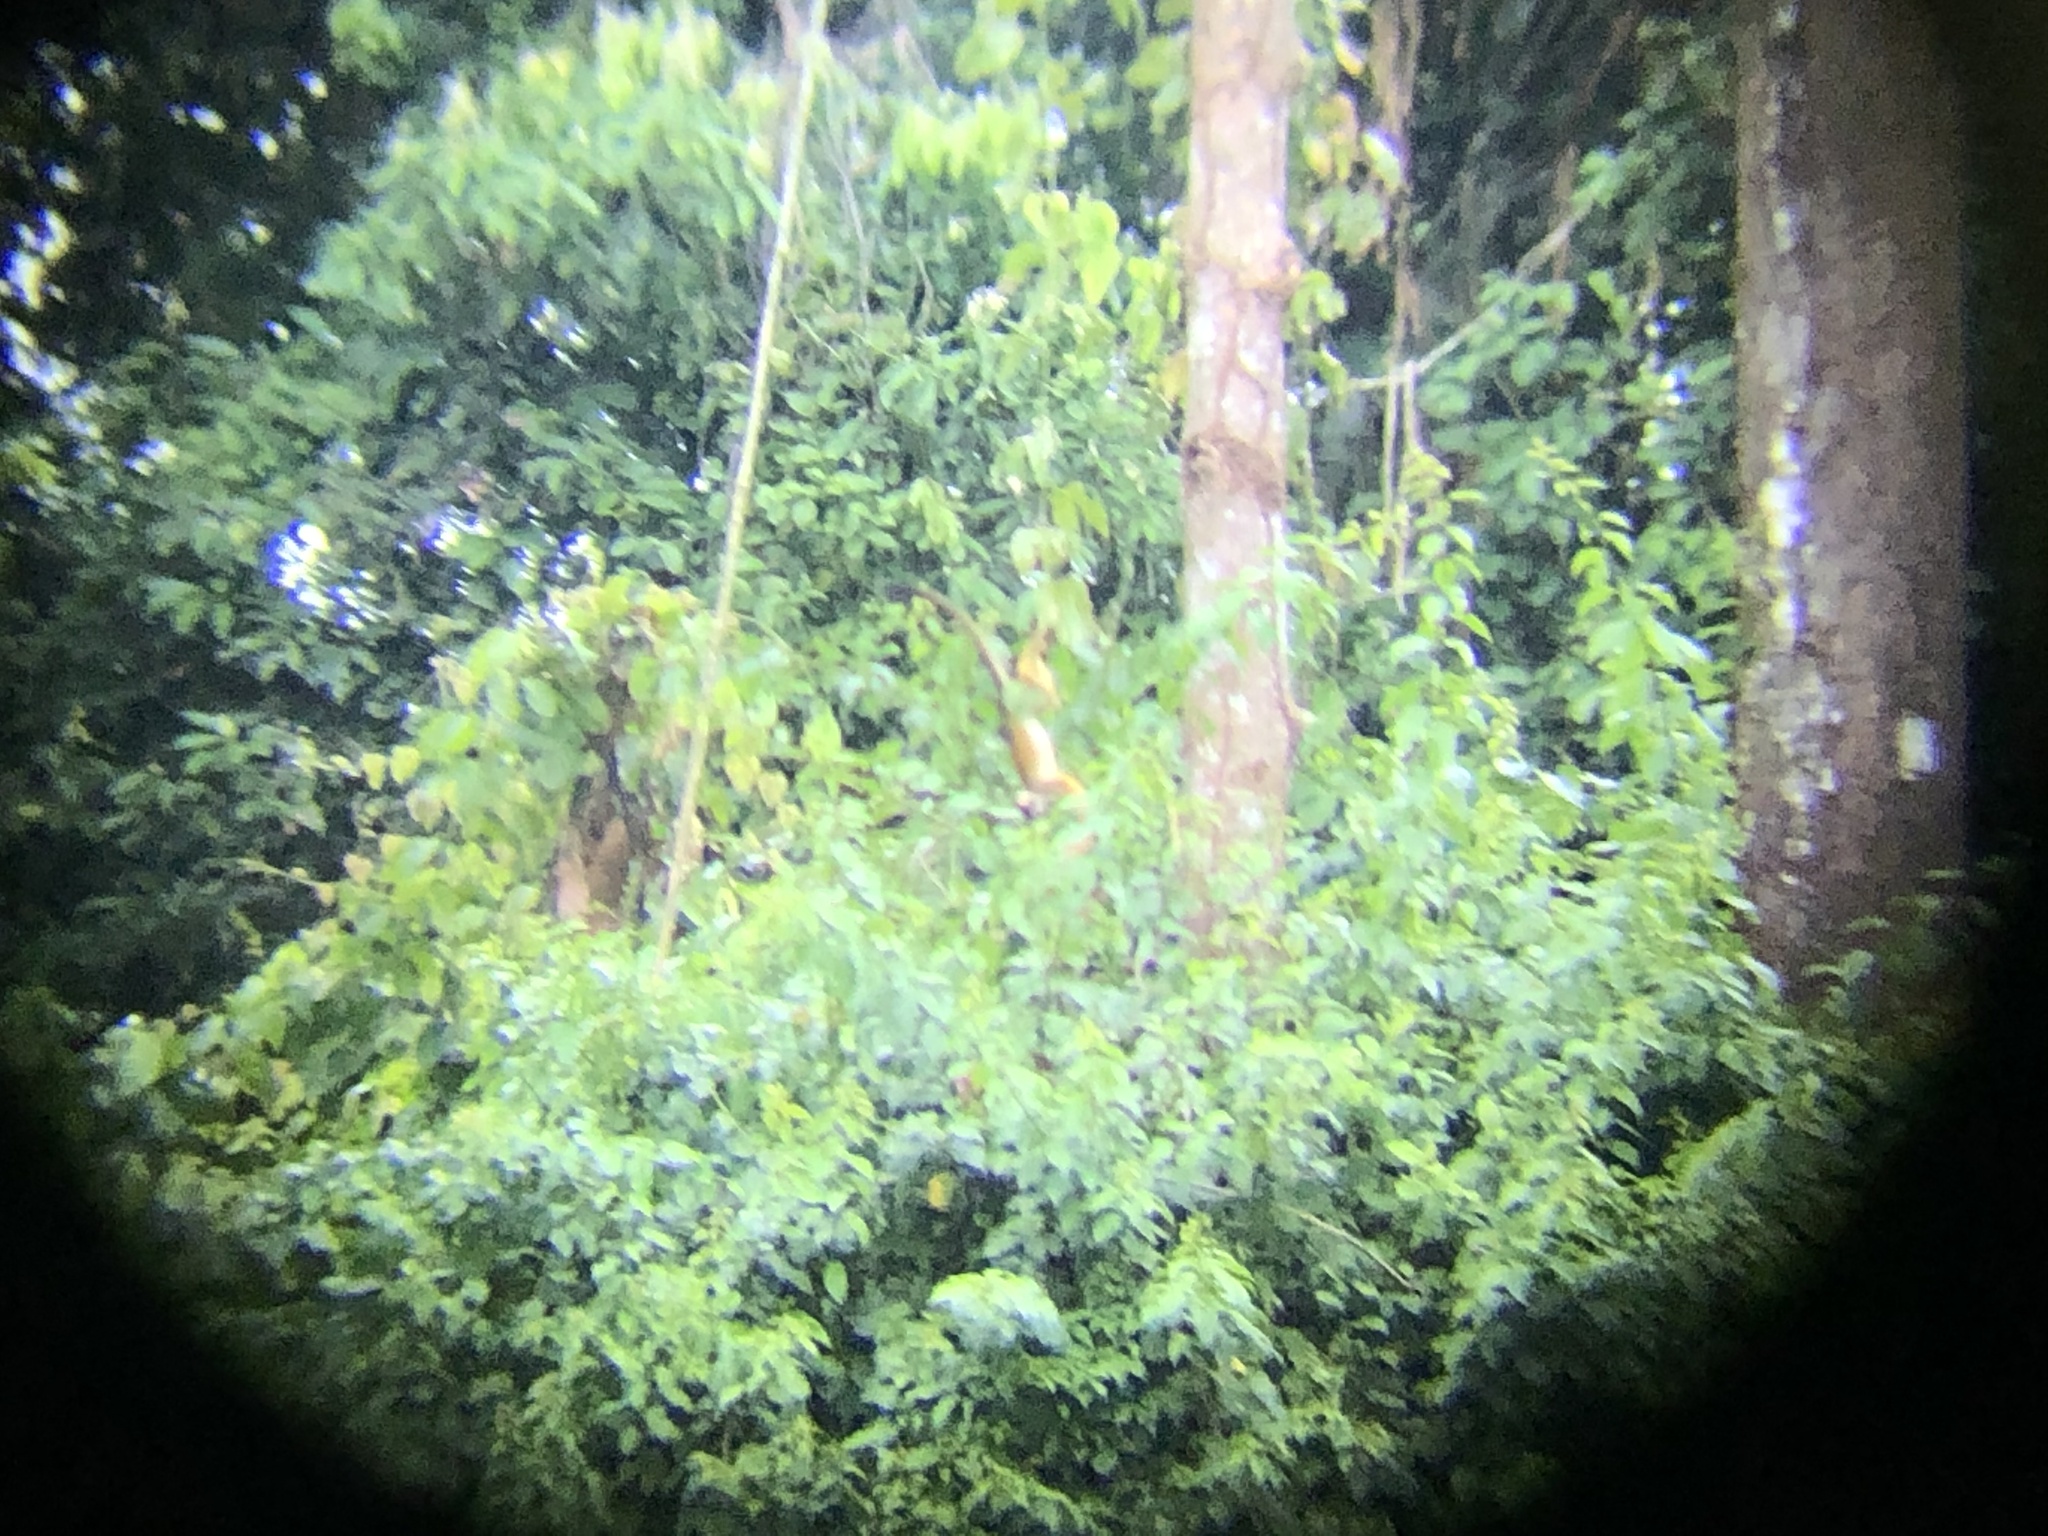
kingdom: Animalia
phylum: Chordata
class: Mammalia
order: Primates
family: Cebidae
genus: Saimiri
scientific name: Saimiri boliviensis
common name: Black-capped squirrel monkey
